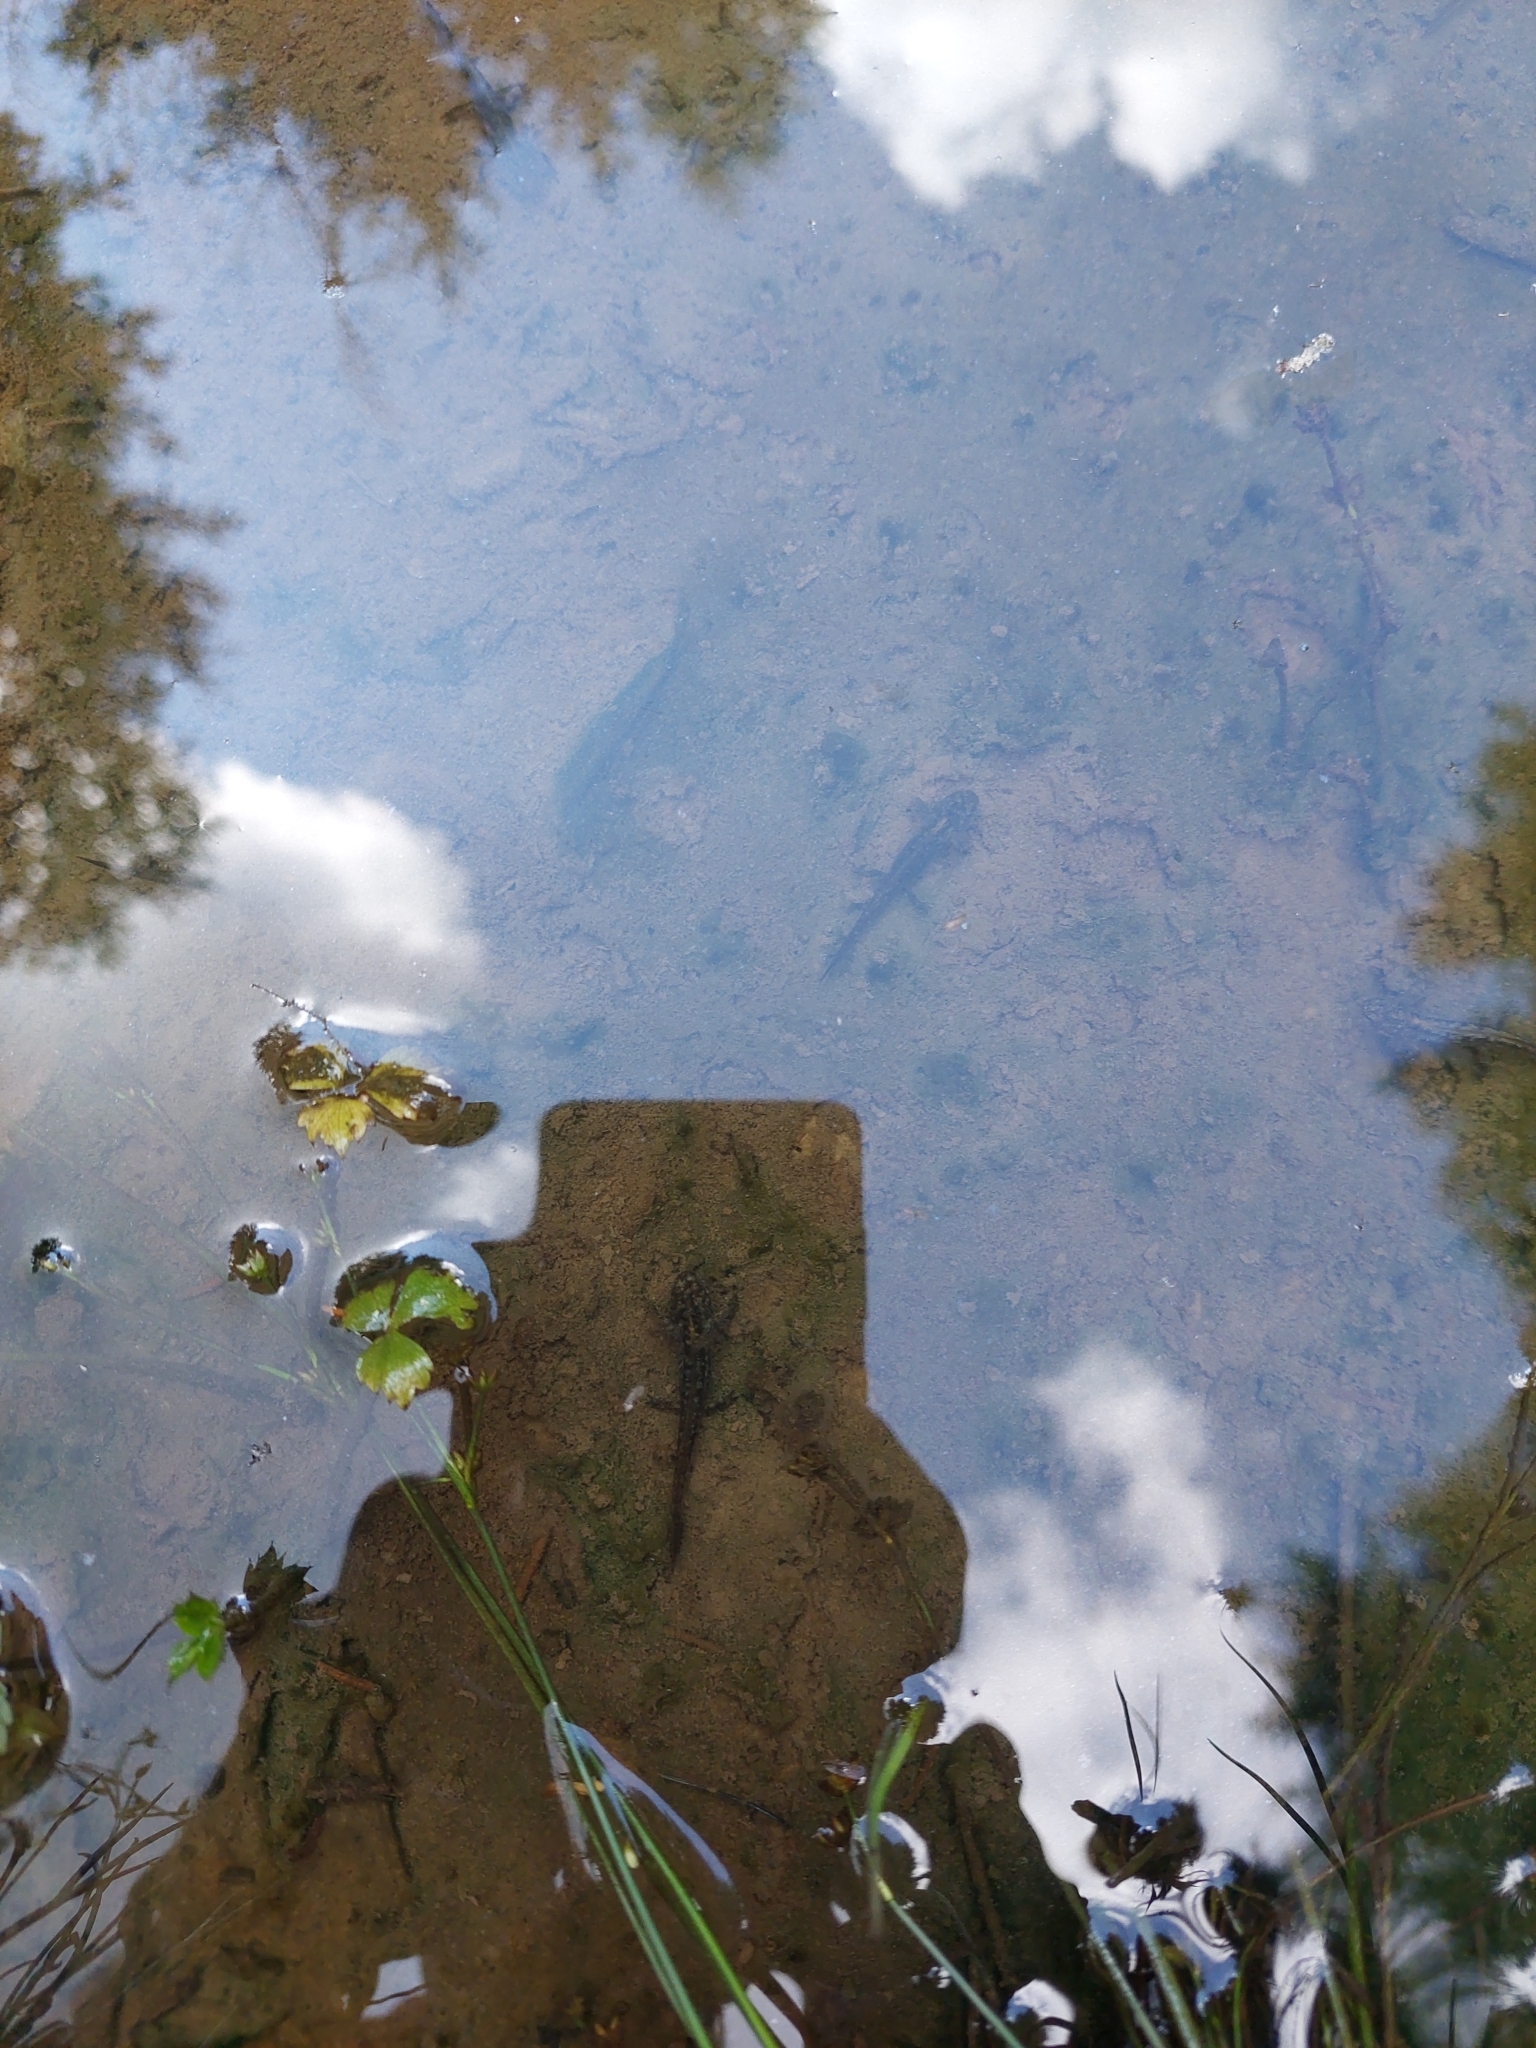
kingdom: Animalia
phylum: Chordata
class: Amphibia
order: Caudata
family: Salamandridae
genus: Ichthyosaura
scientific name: Ichthyosaura alpestris
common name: Alpine newt
